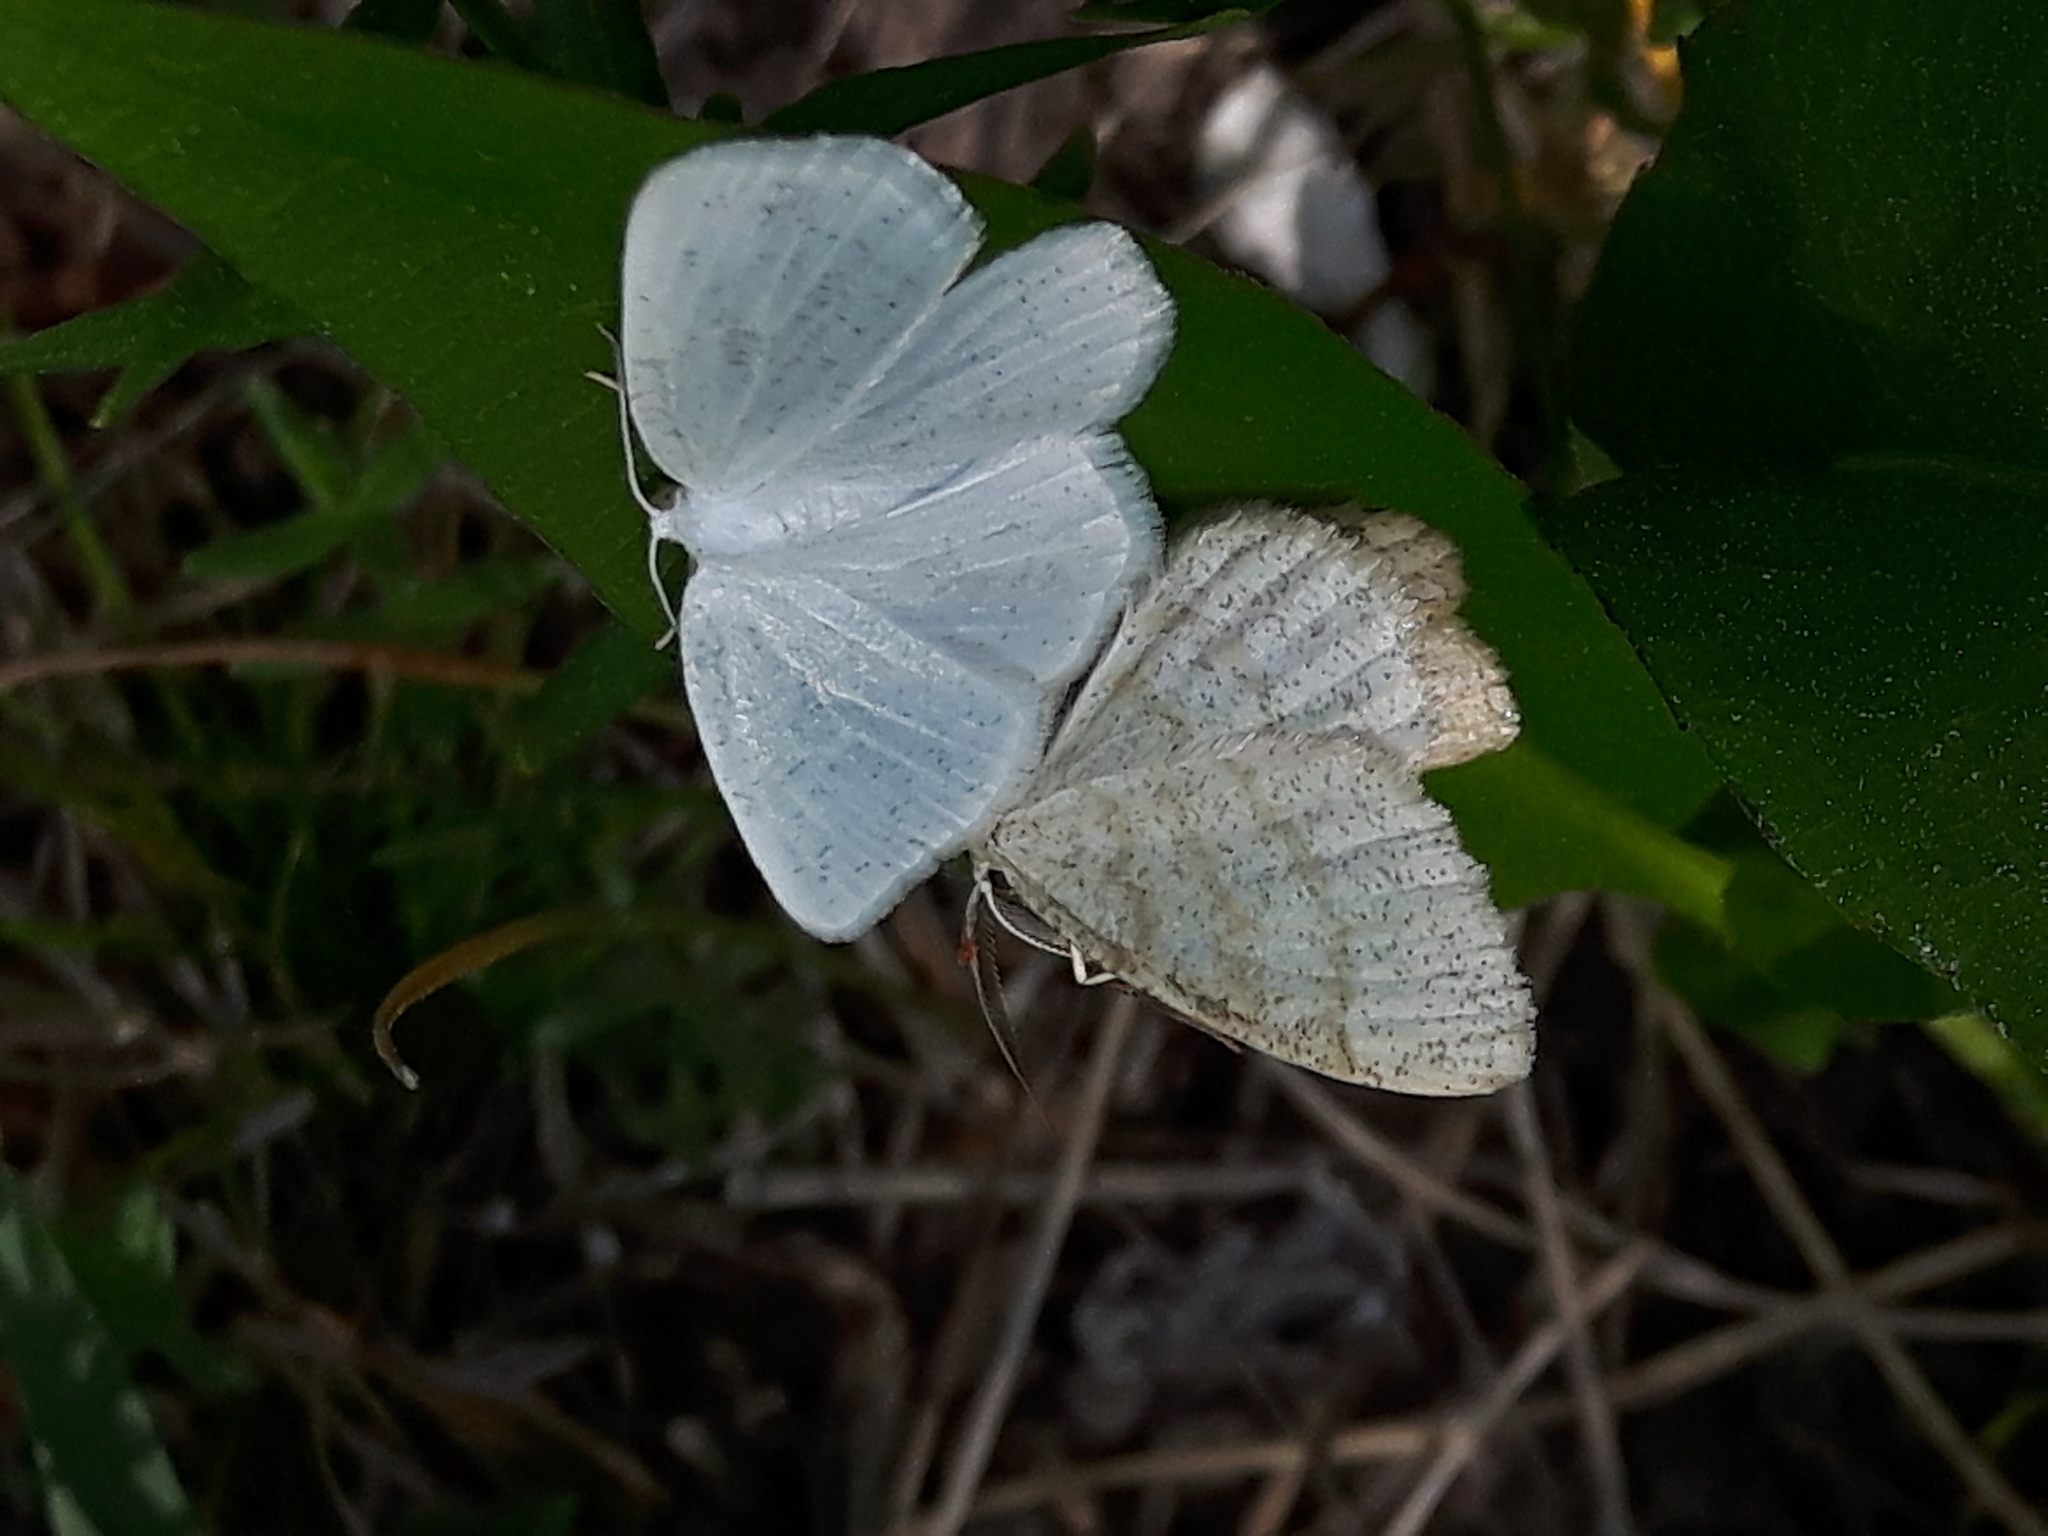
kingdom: Animalia
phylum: Arthropoda
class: Insecta
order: Lepidoptera
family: Geometridae
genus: Cabera
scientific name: Cabera variolaria
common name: Pink-striped willow spanworm
